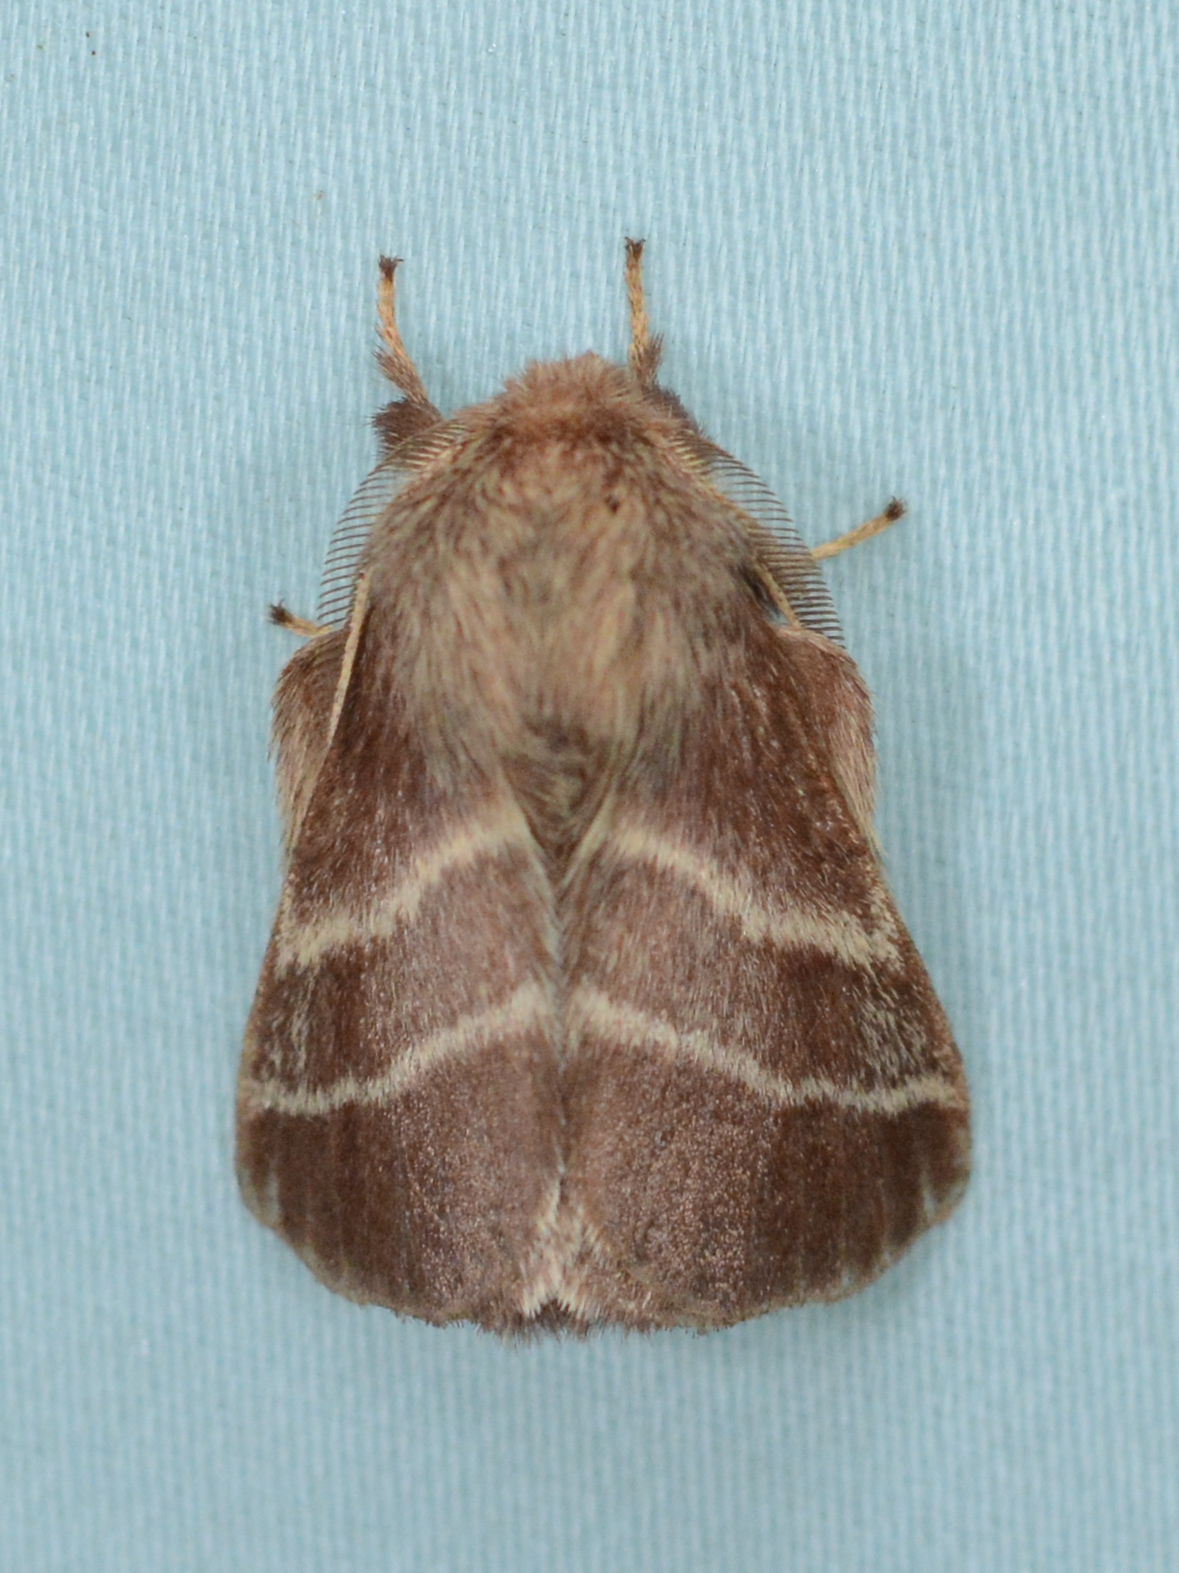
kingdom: Animalia
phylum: Arthropoda
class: Insecta
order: Lepidoptera
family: Lasiocampidae
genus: Malacosoma
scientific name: Malacosoma americana
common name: Eastern tent caterpillar moth
